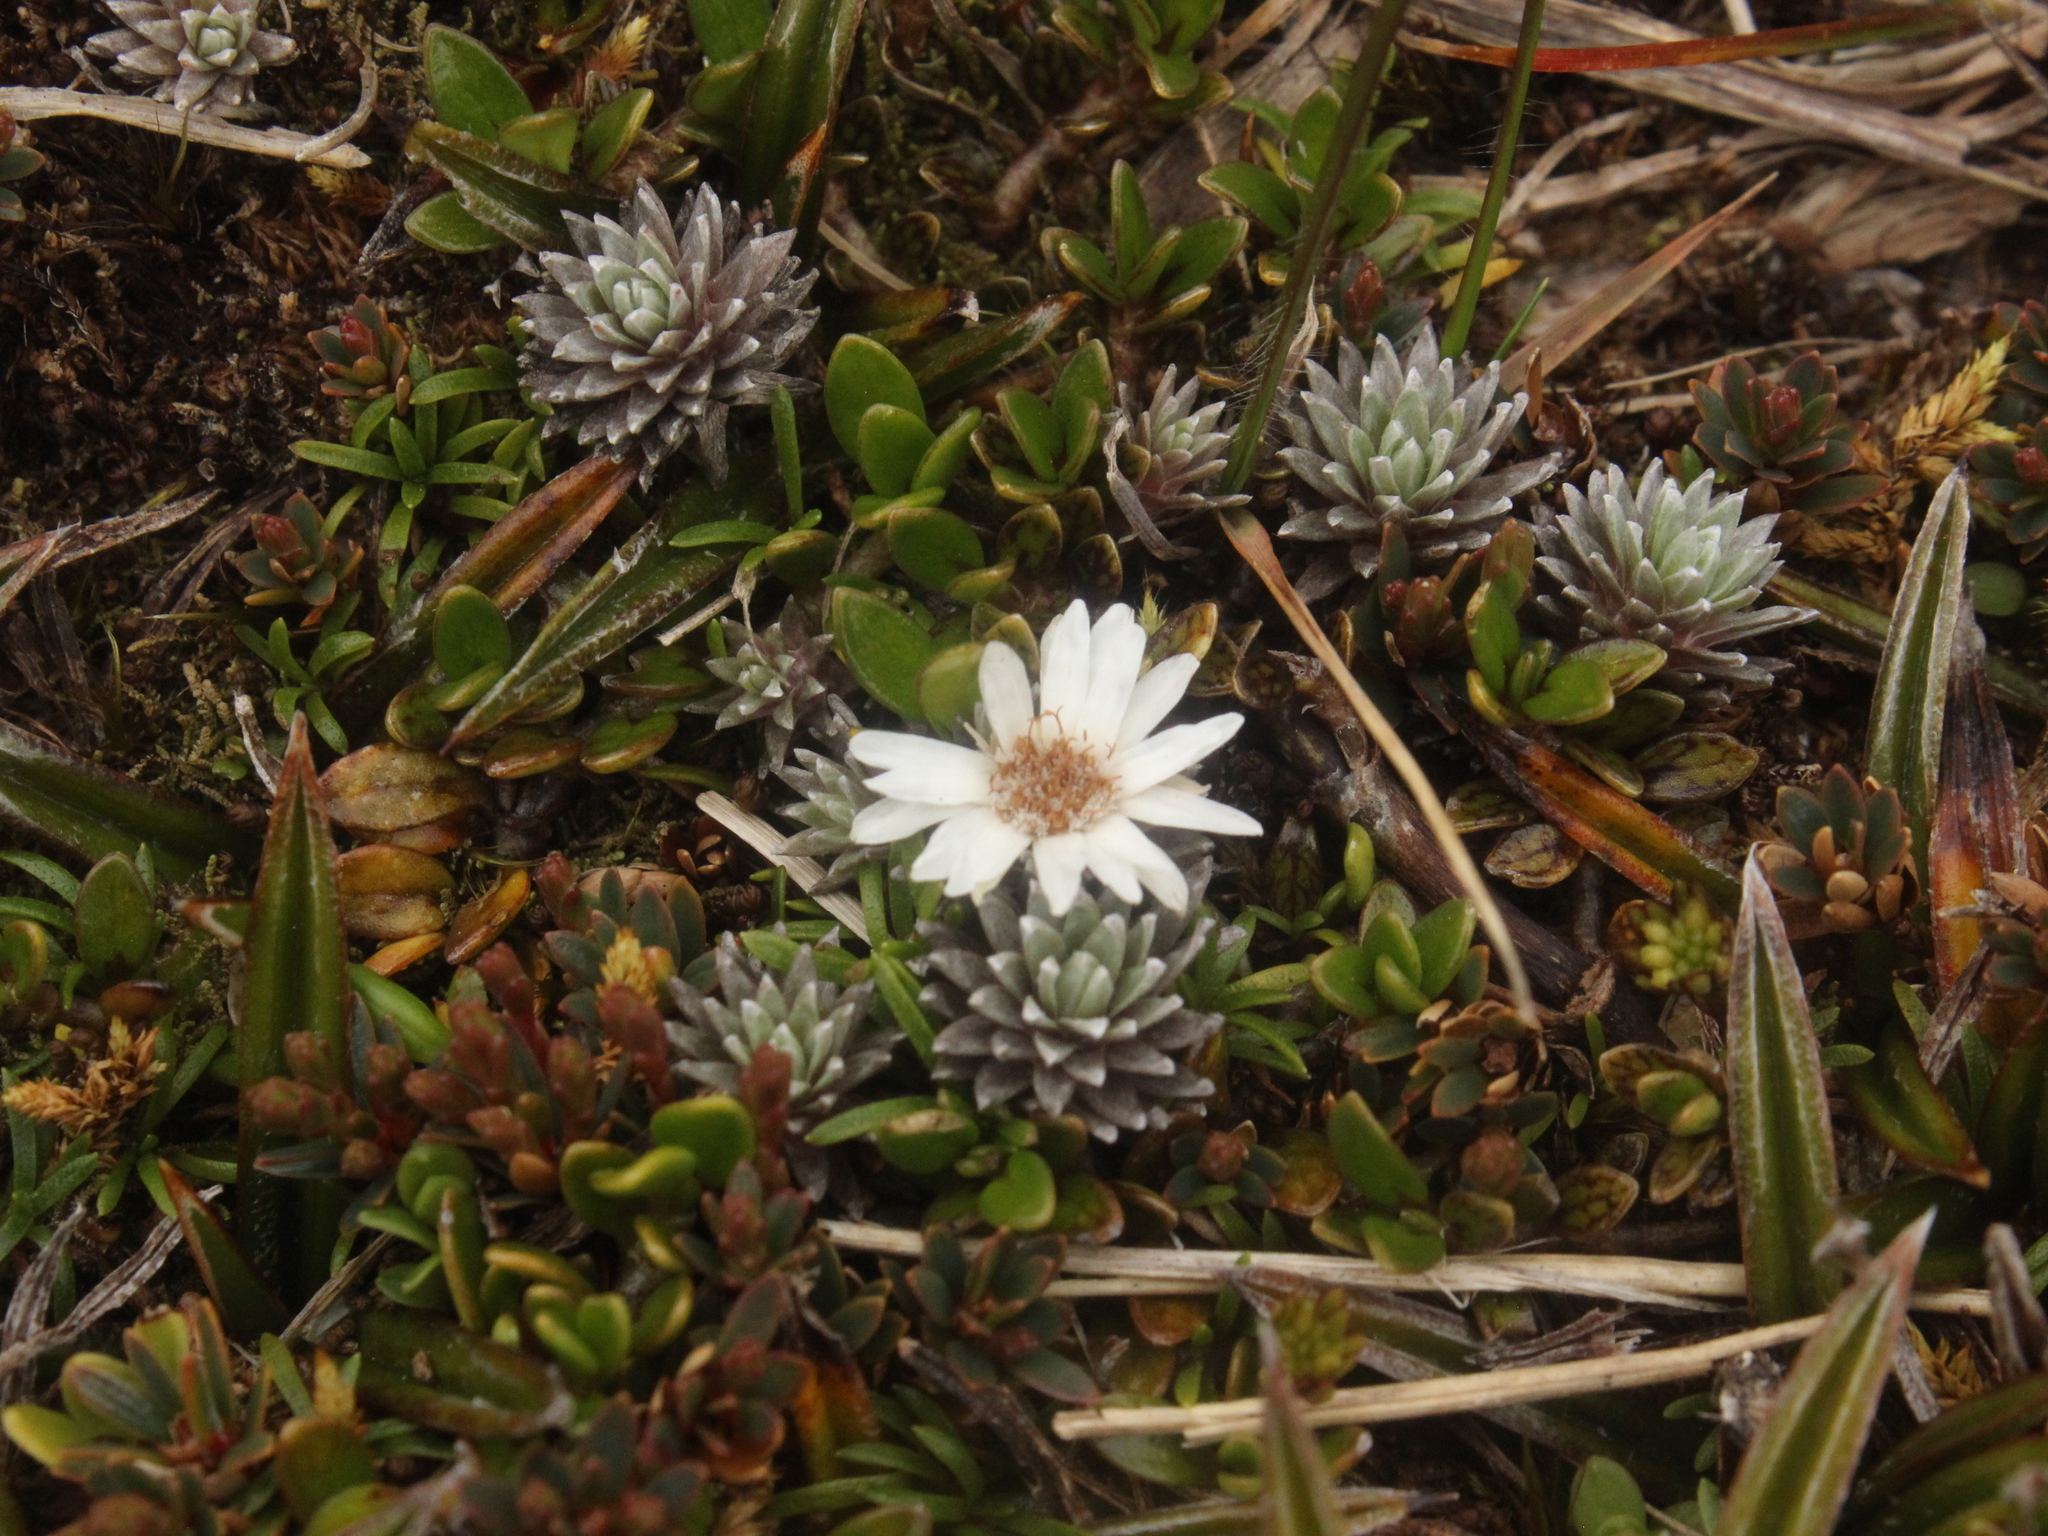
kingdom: Plantae
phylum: Tracheophyta
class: Magnoliopsida
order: Asterales
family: Asteraceae
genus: Raoulia
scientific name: Raoulia grandiflora
